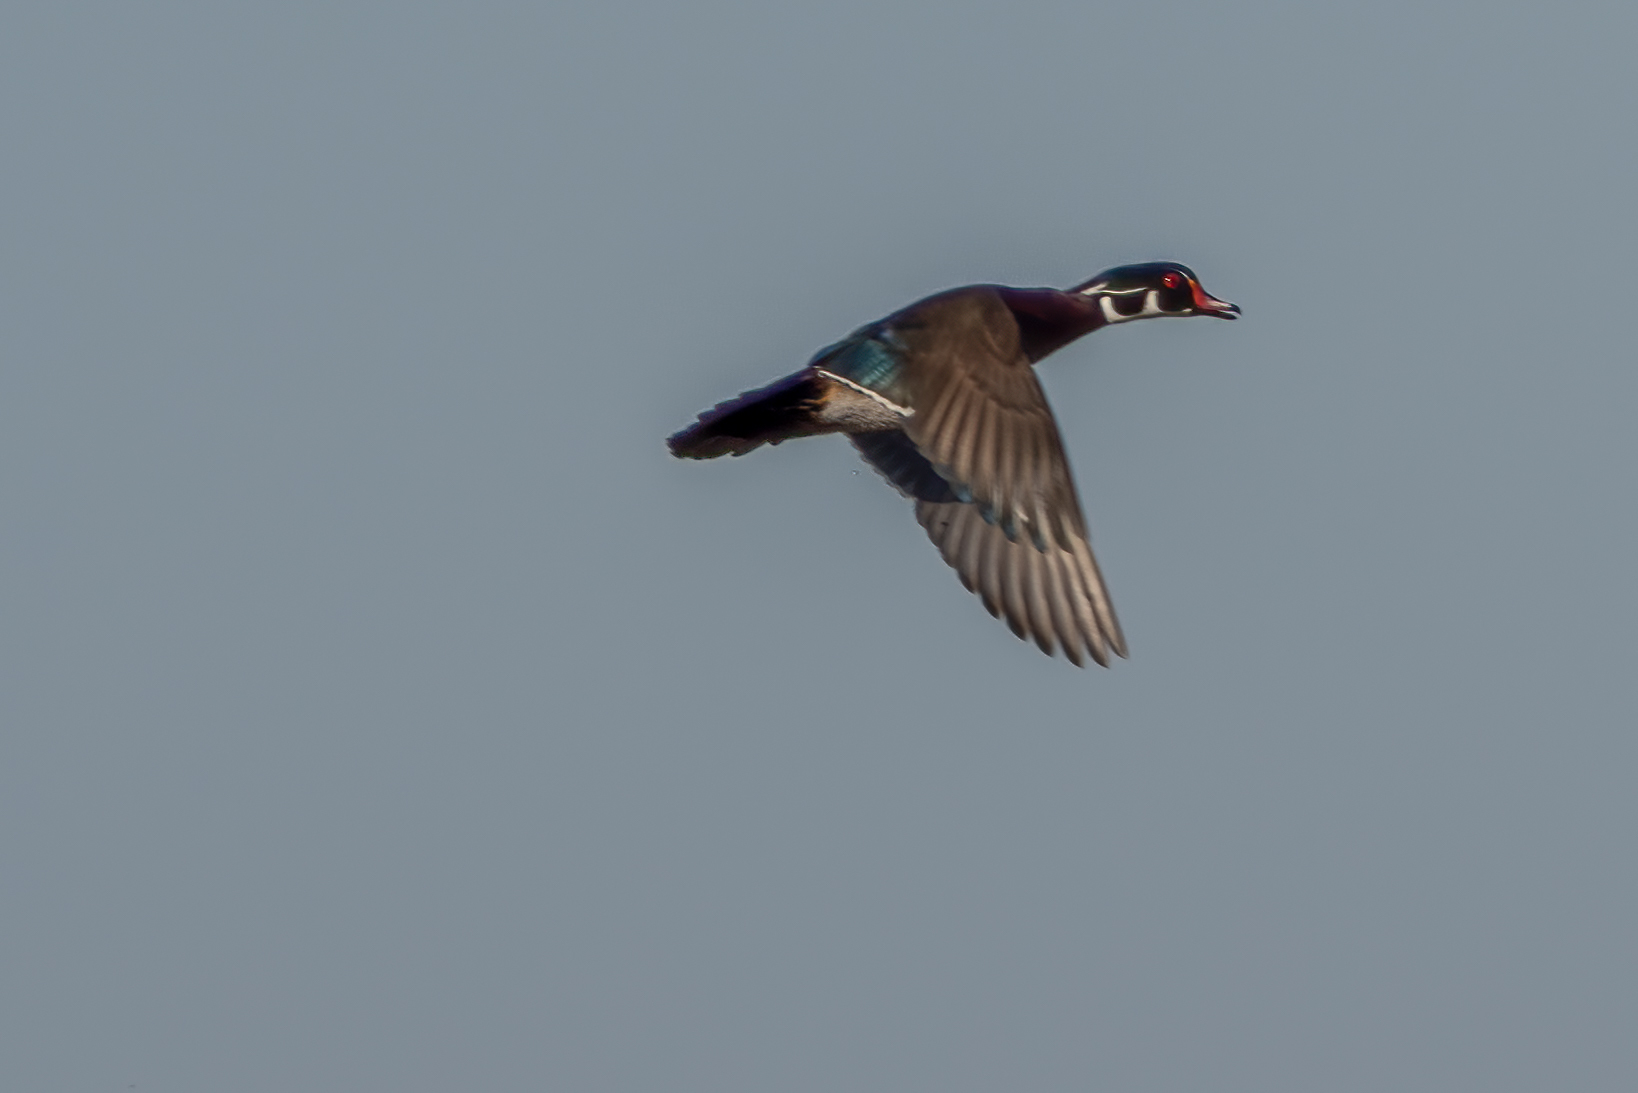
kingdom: Animalia
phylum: Chordata
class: Aves
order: Anseriformes
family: Anatidae
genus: Aix
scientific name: Aix sponsa
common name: Wood duck
